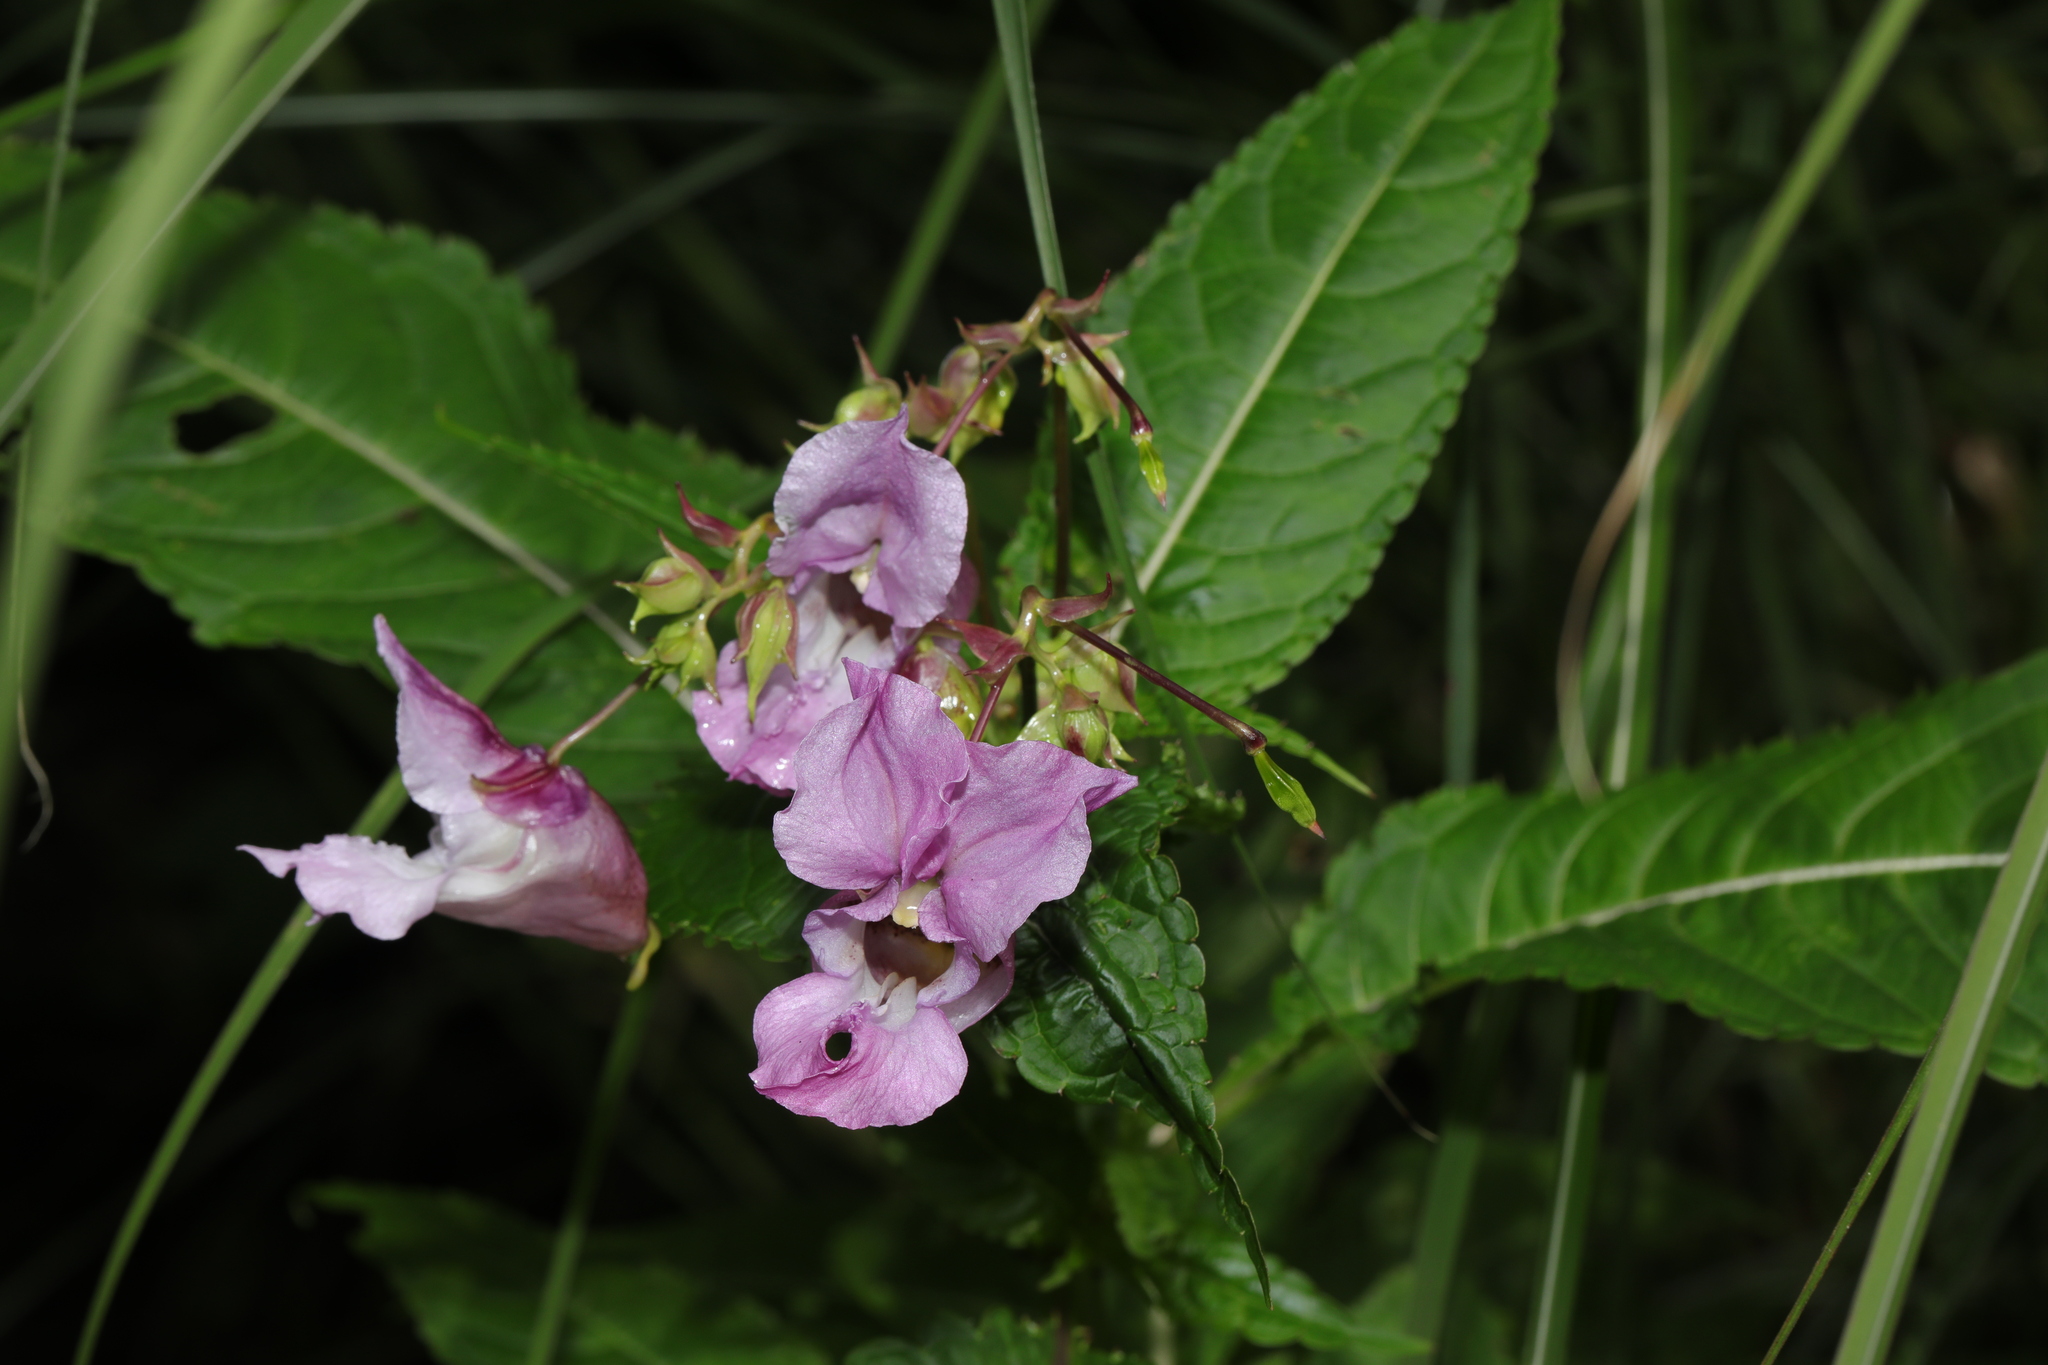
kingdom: Plantae
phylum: Tracheophyta
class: Magnoliopsida
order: Ericales
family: Balsaminaceae
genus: Impatiens
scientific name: Impatiens glandulifera
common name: Himalayan balsam
